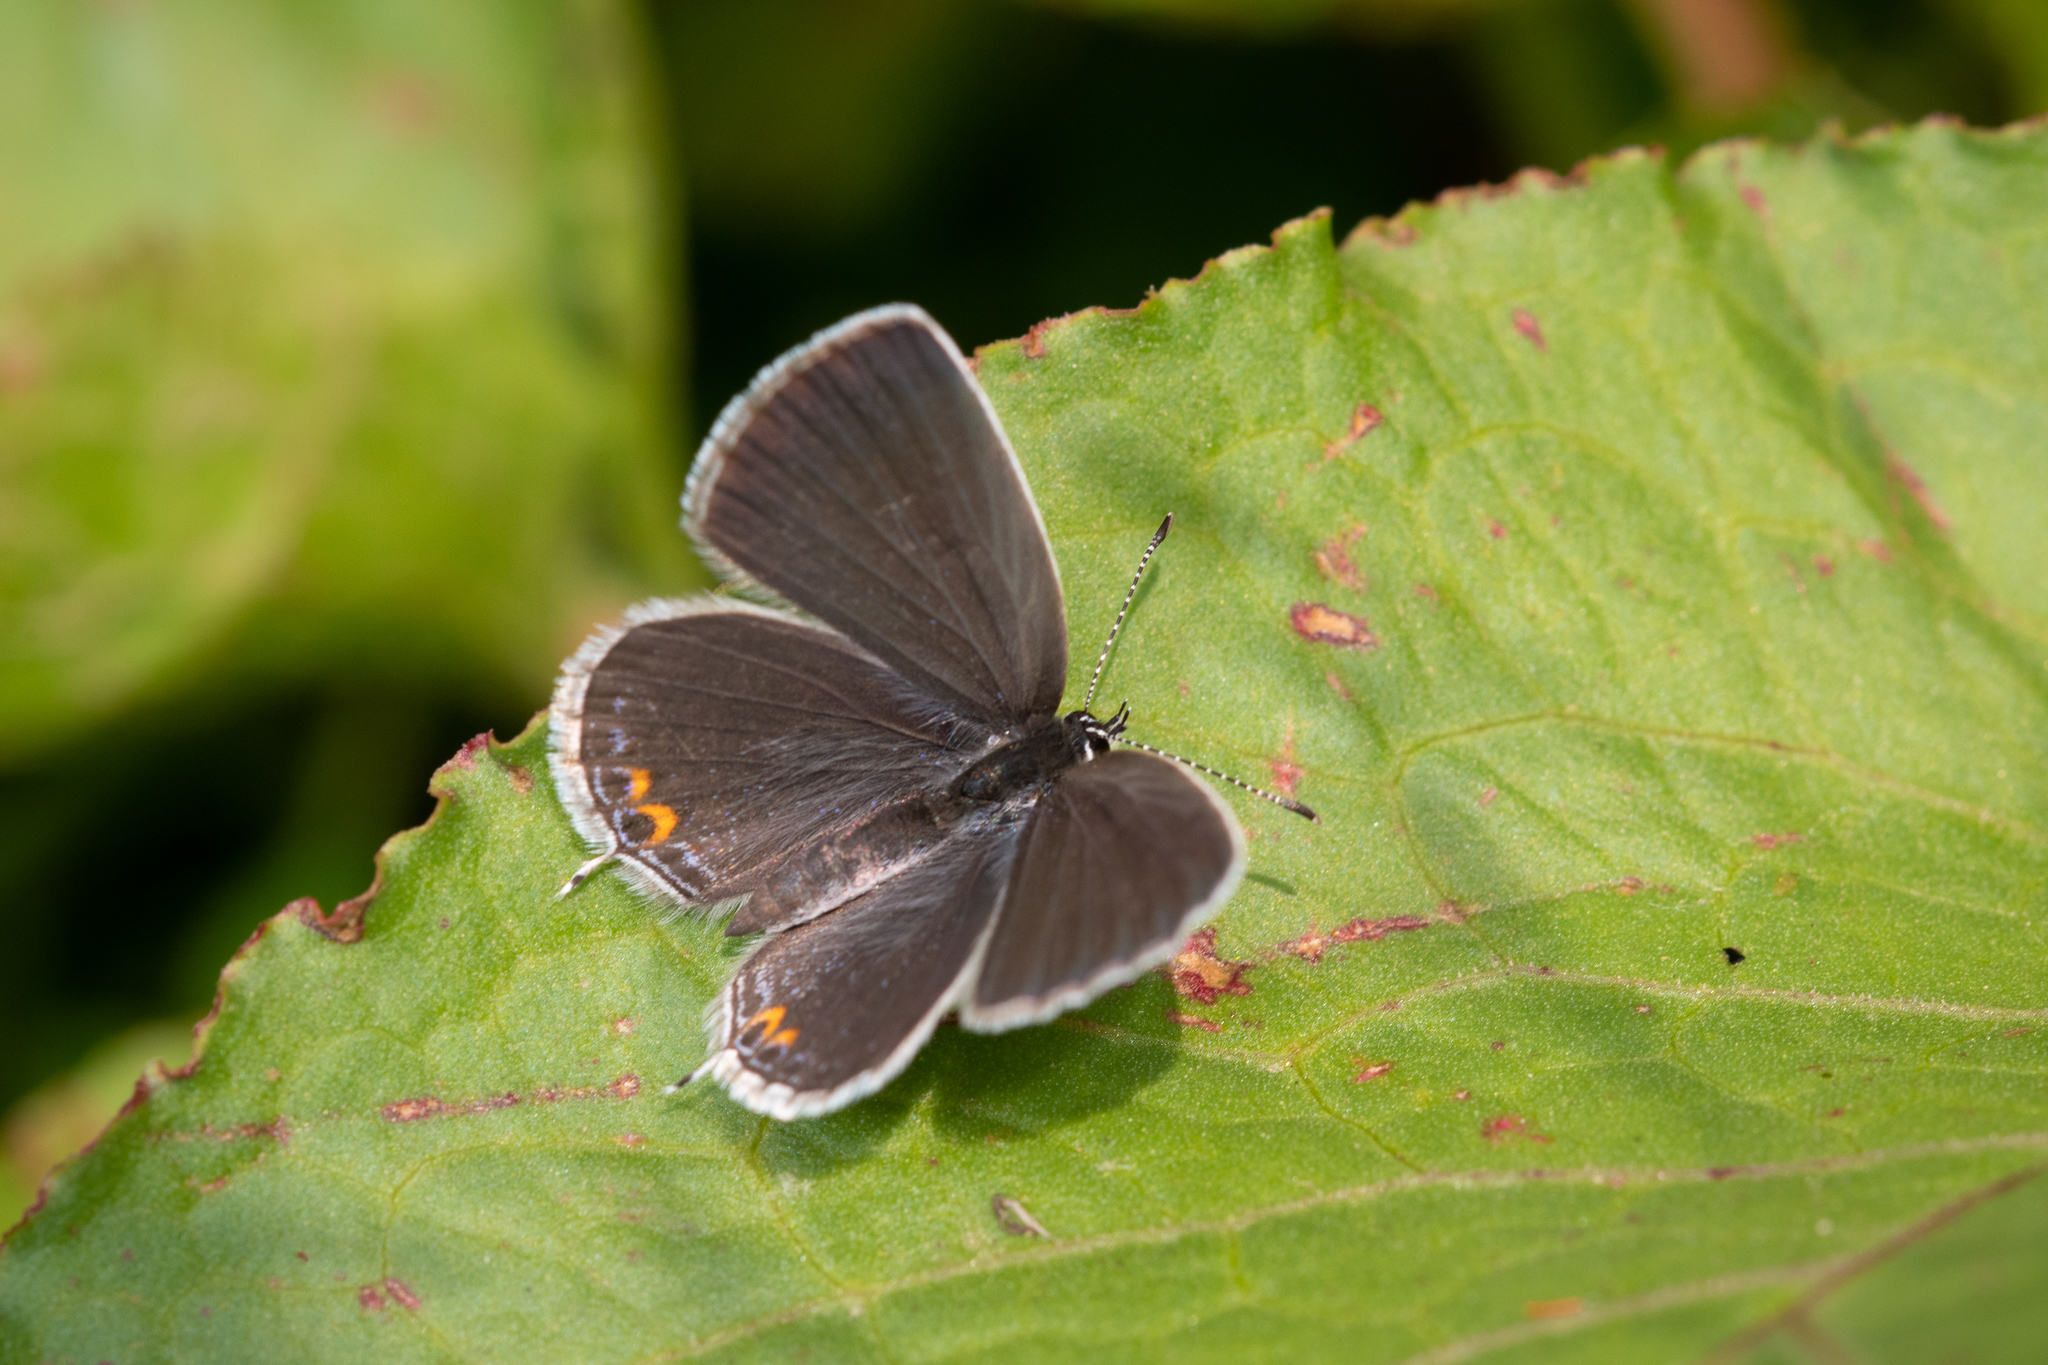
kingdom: Animalia
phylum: Arthropoda
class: Insecta
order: Lepidoptera
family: Lycaenidae
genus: Elkalyce
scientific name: Elkalyce comyntas
